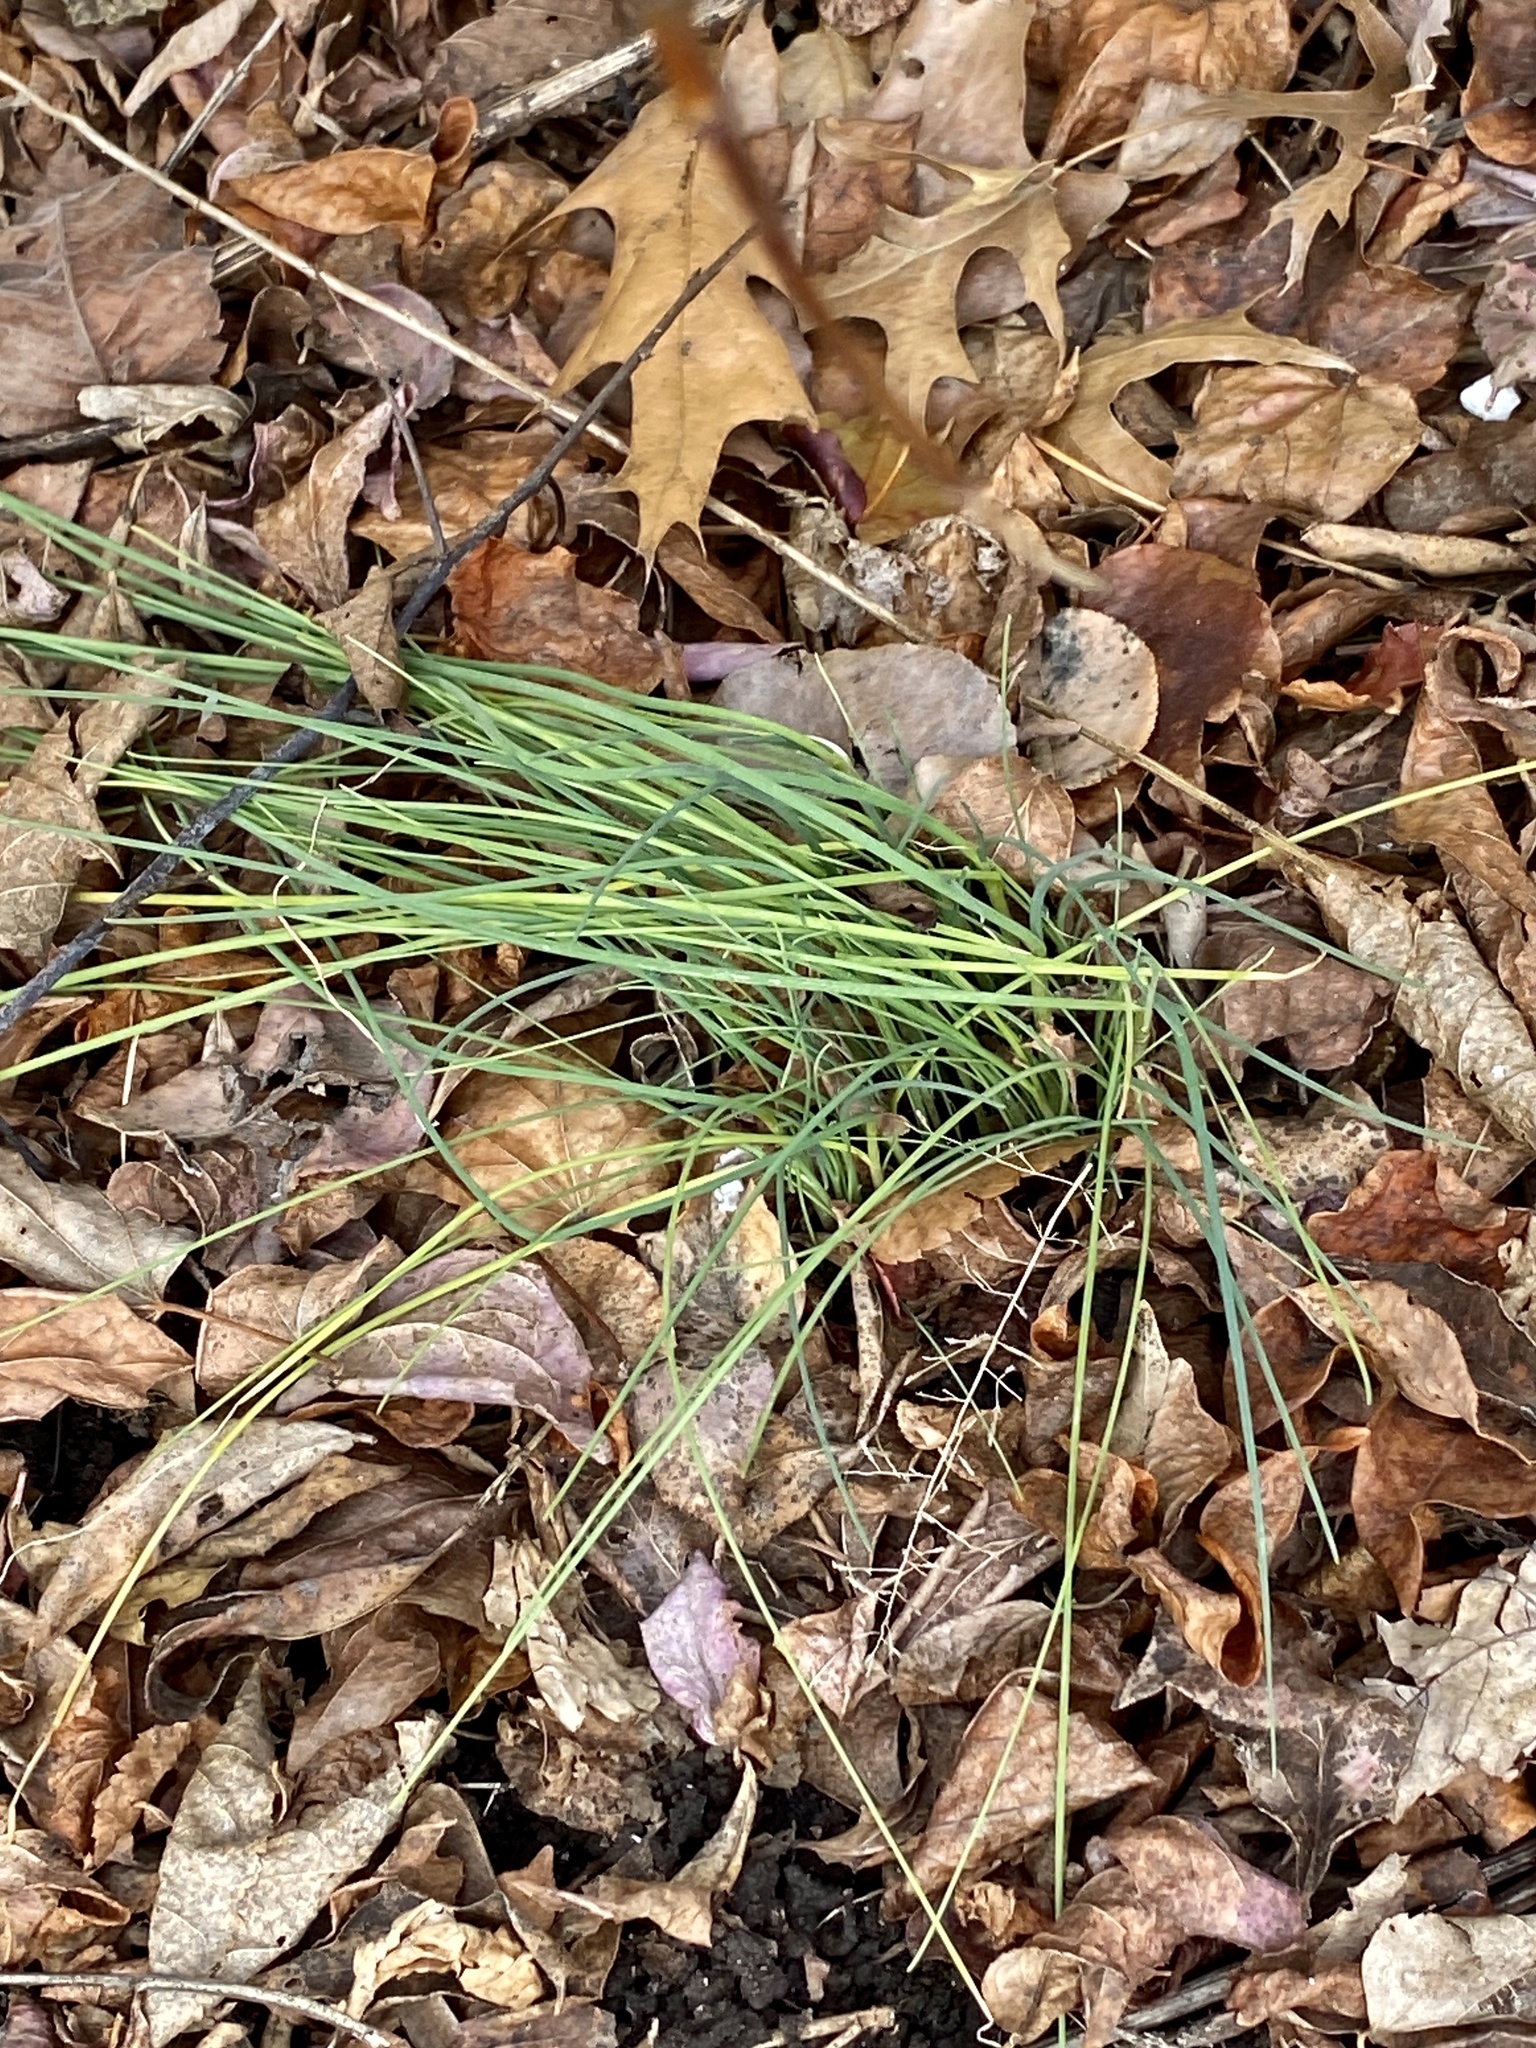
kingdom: Plantae
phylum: Tracheophyta
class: Liliopsida
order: Asparagales
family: Amaryllidaceae
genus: Allium
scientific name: Allium vineale
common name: Crow garlic
